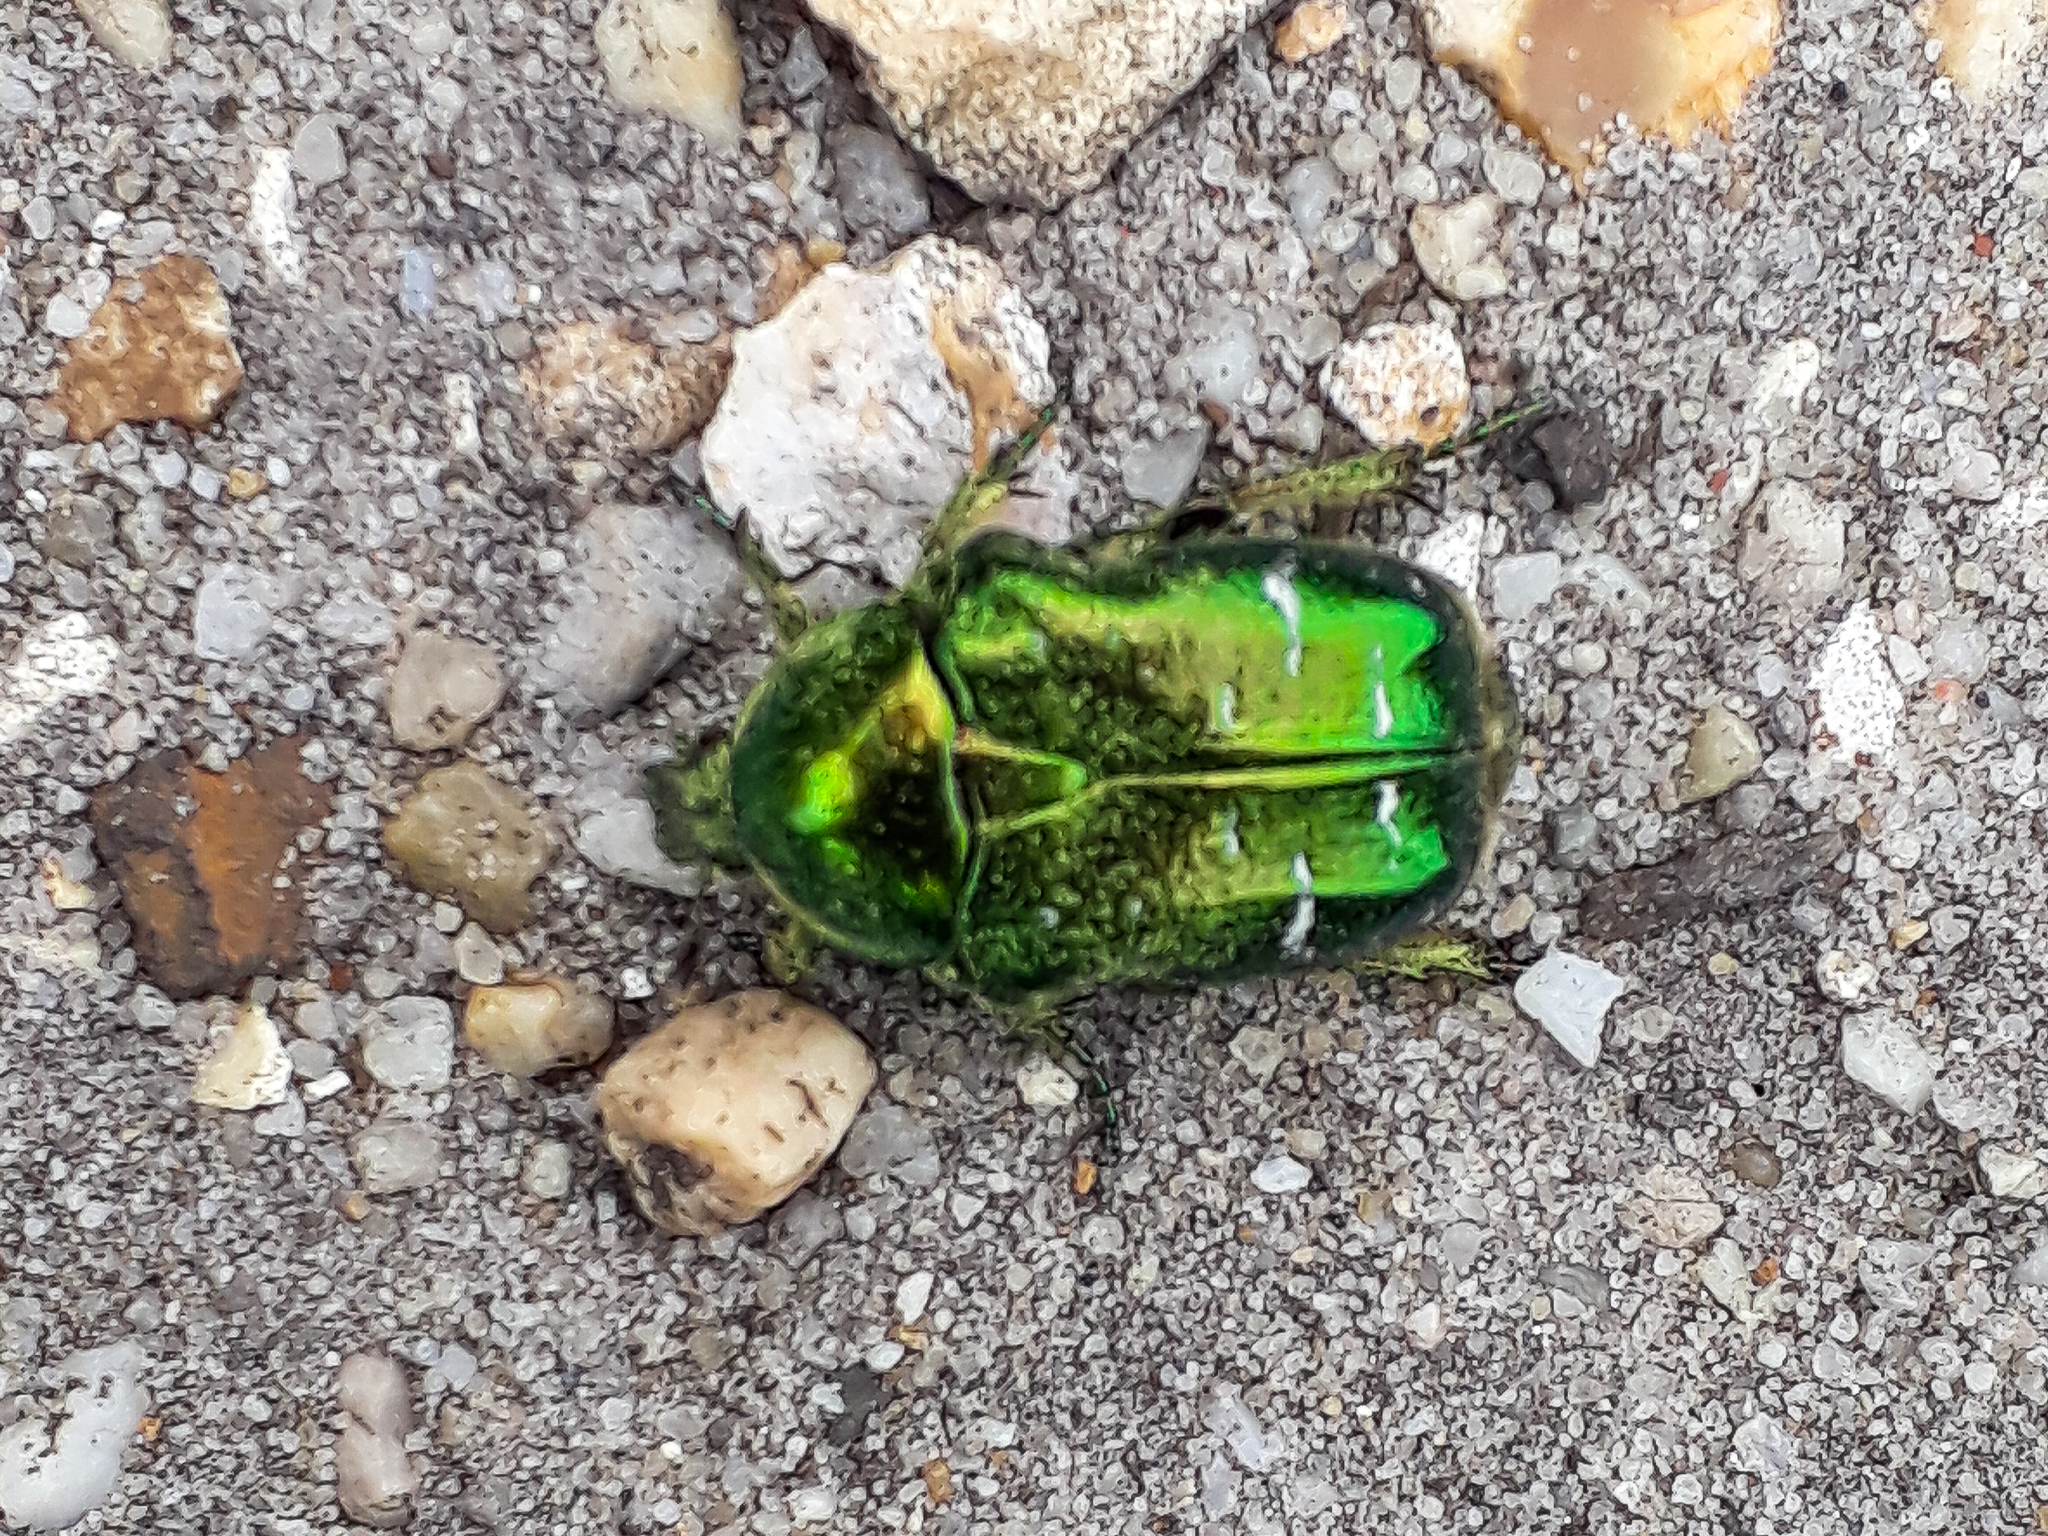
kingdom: Animalia
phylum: Arthropoda
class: Insecta
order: Coleoptera
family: Scarabaeidae
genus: Cetonia
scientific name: Cetonia aurata
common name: Rose chafer
